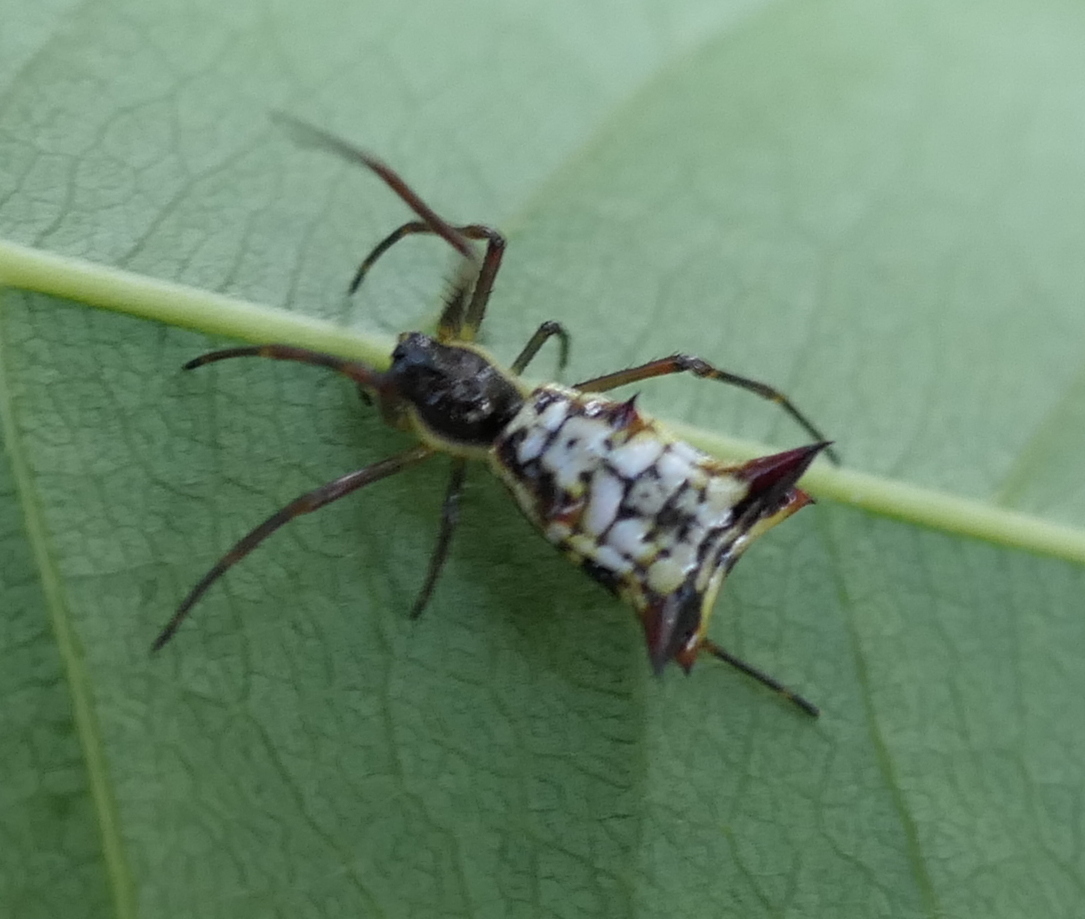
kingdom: Animalia
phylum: Arthropoda
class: Arachnida
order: Araneae
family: Araneidae
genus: Micrathena
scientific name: Micrathena fissispina
